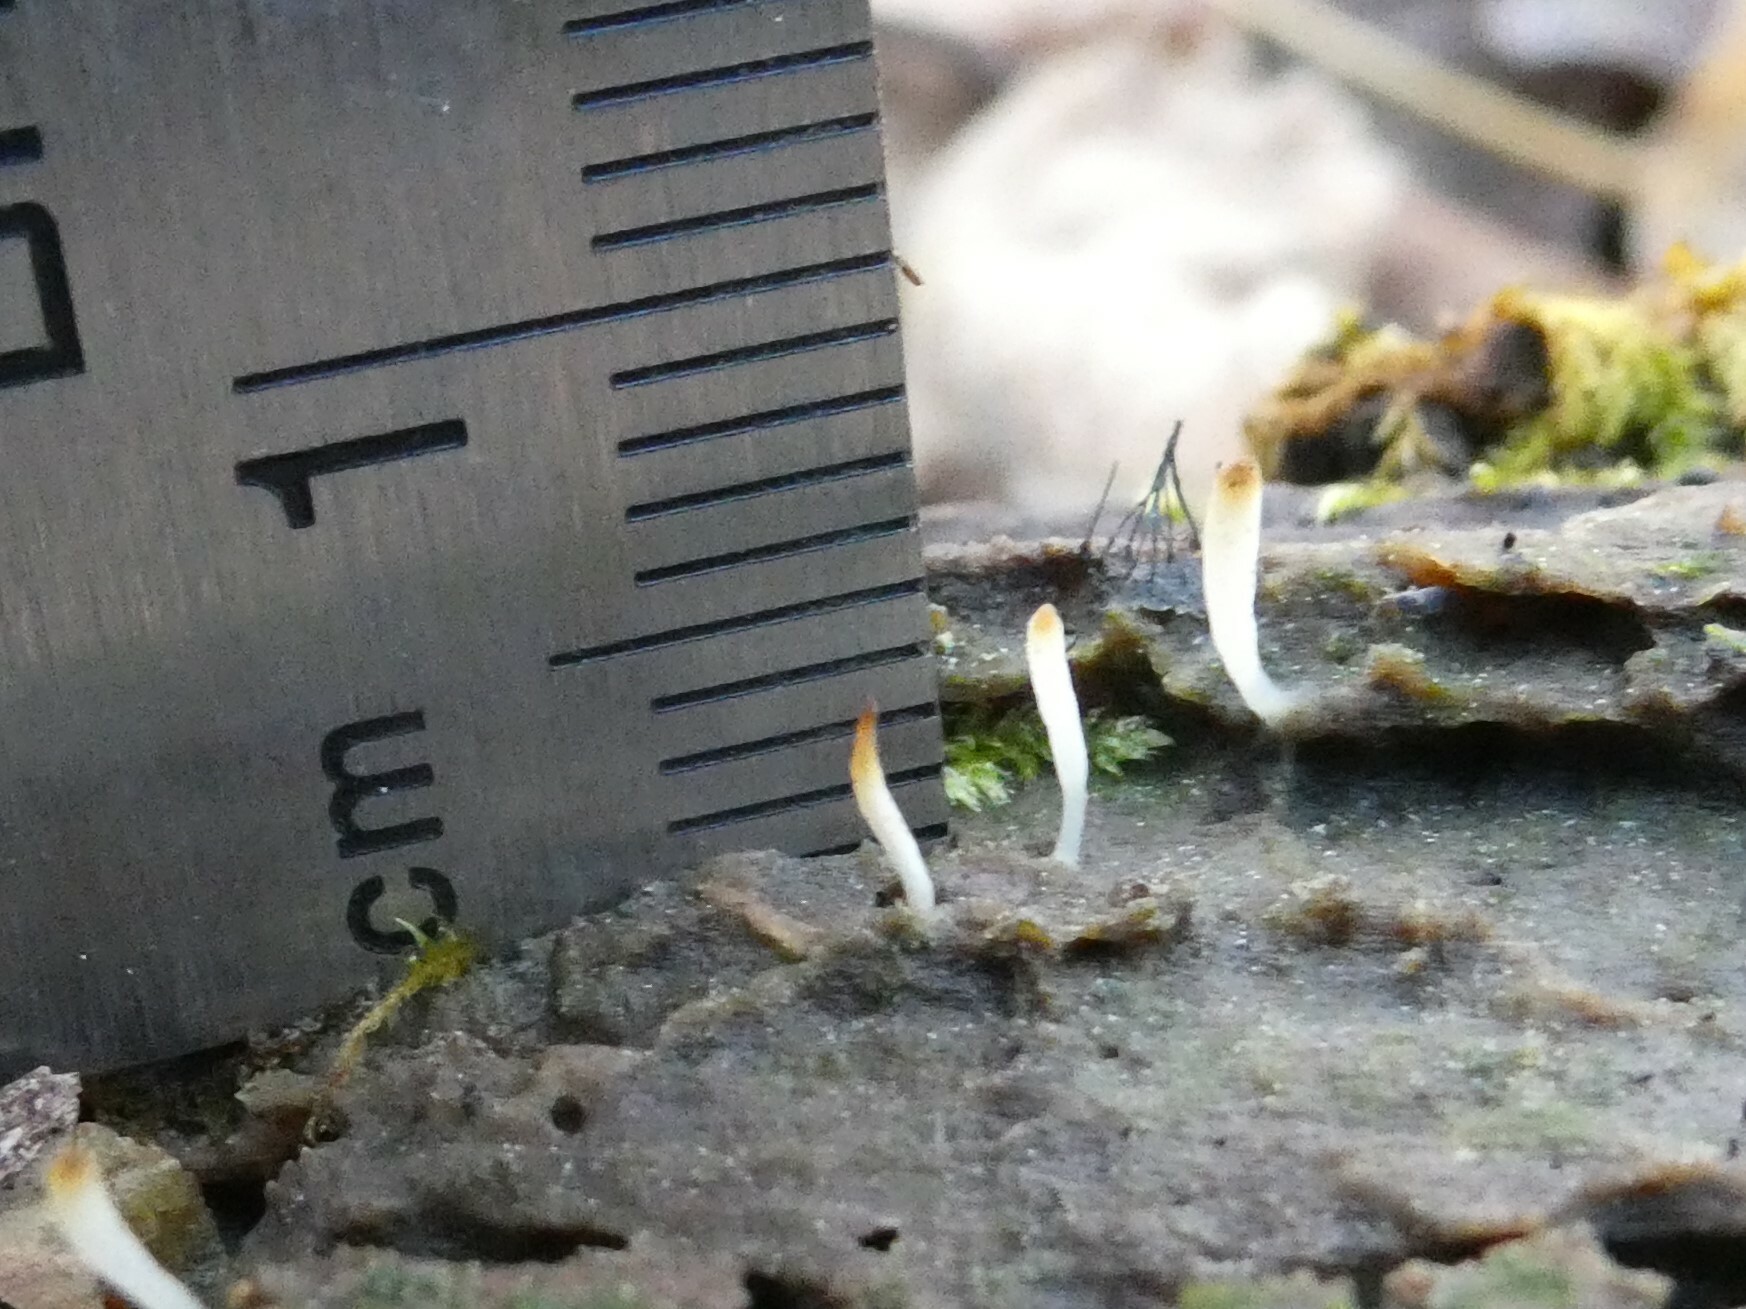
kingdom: Fungi
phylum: Basidiomycota
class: Agaricomycetes
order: Cantharellales
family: Hydnaceae
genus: Multiclavula
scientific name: Multiclavula mucida
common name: White green-algae coral
